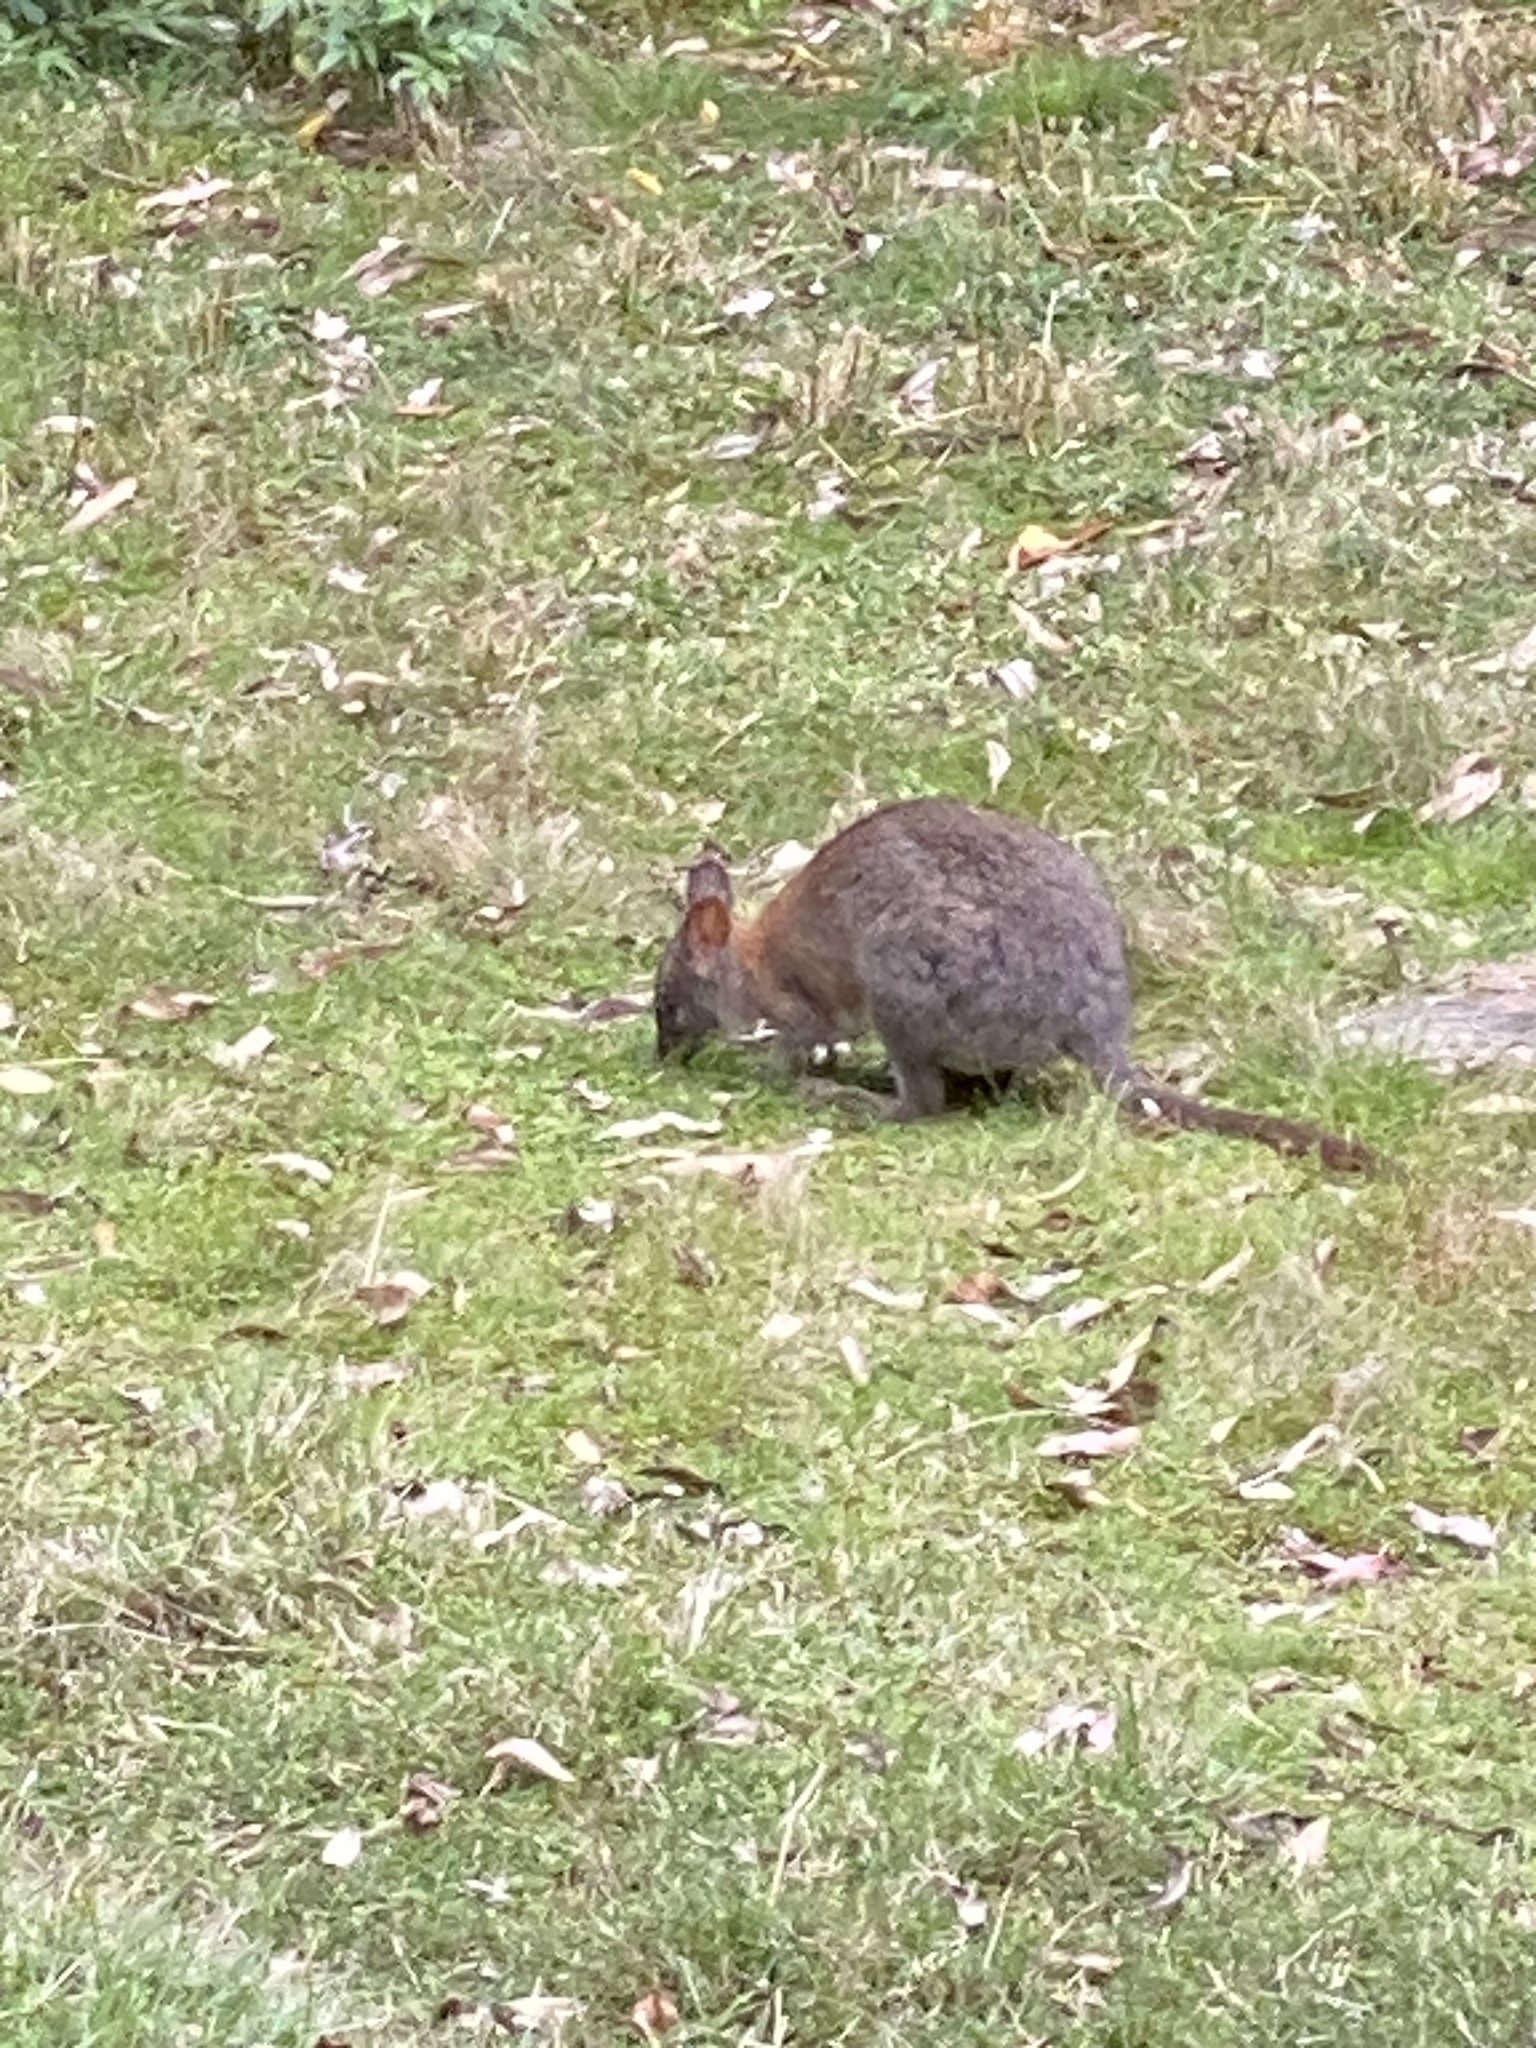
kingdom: Animalia
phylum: Chordata
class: Mammalia
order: Diprotodontia
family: Macropodidae
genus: Thylogale
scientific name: Thylogale thetis
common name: Red-necked pademelon
